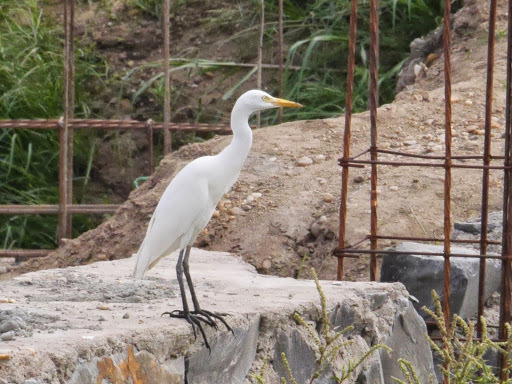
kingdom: Animalia
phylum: Chordata
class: Aves
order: Pelecaniformes
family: Ardeidae
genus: Egretta
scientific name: Egretta intermedia
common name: Intermediate egret
